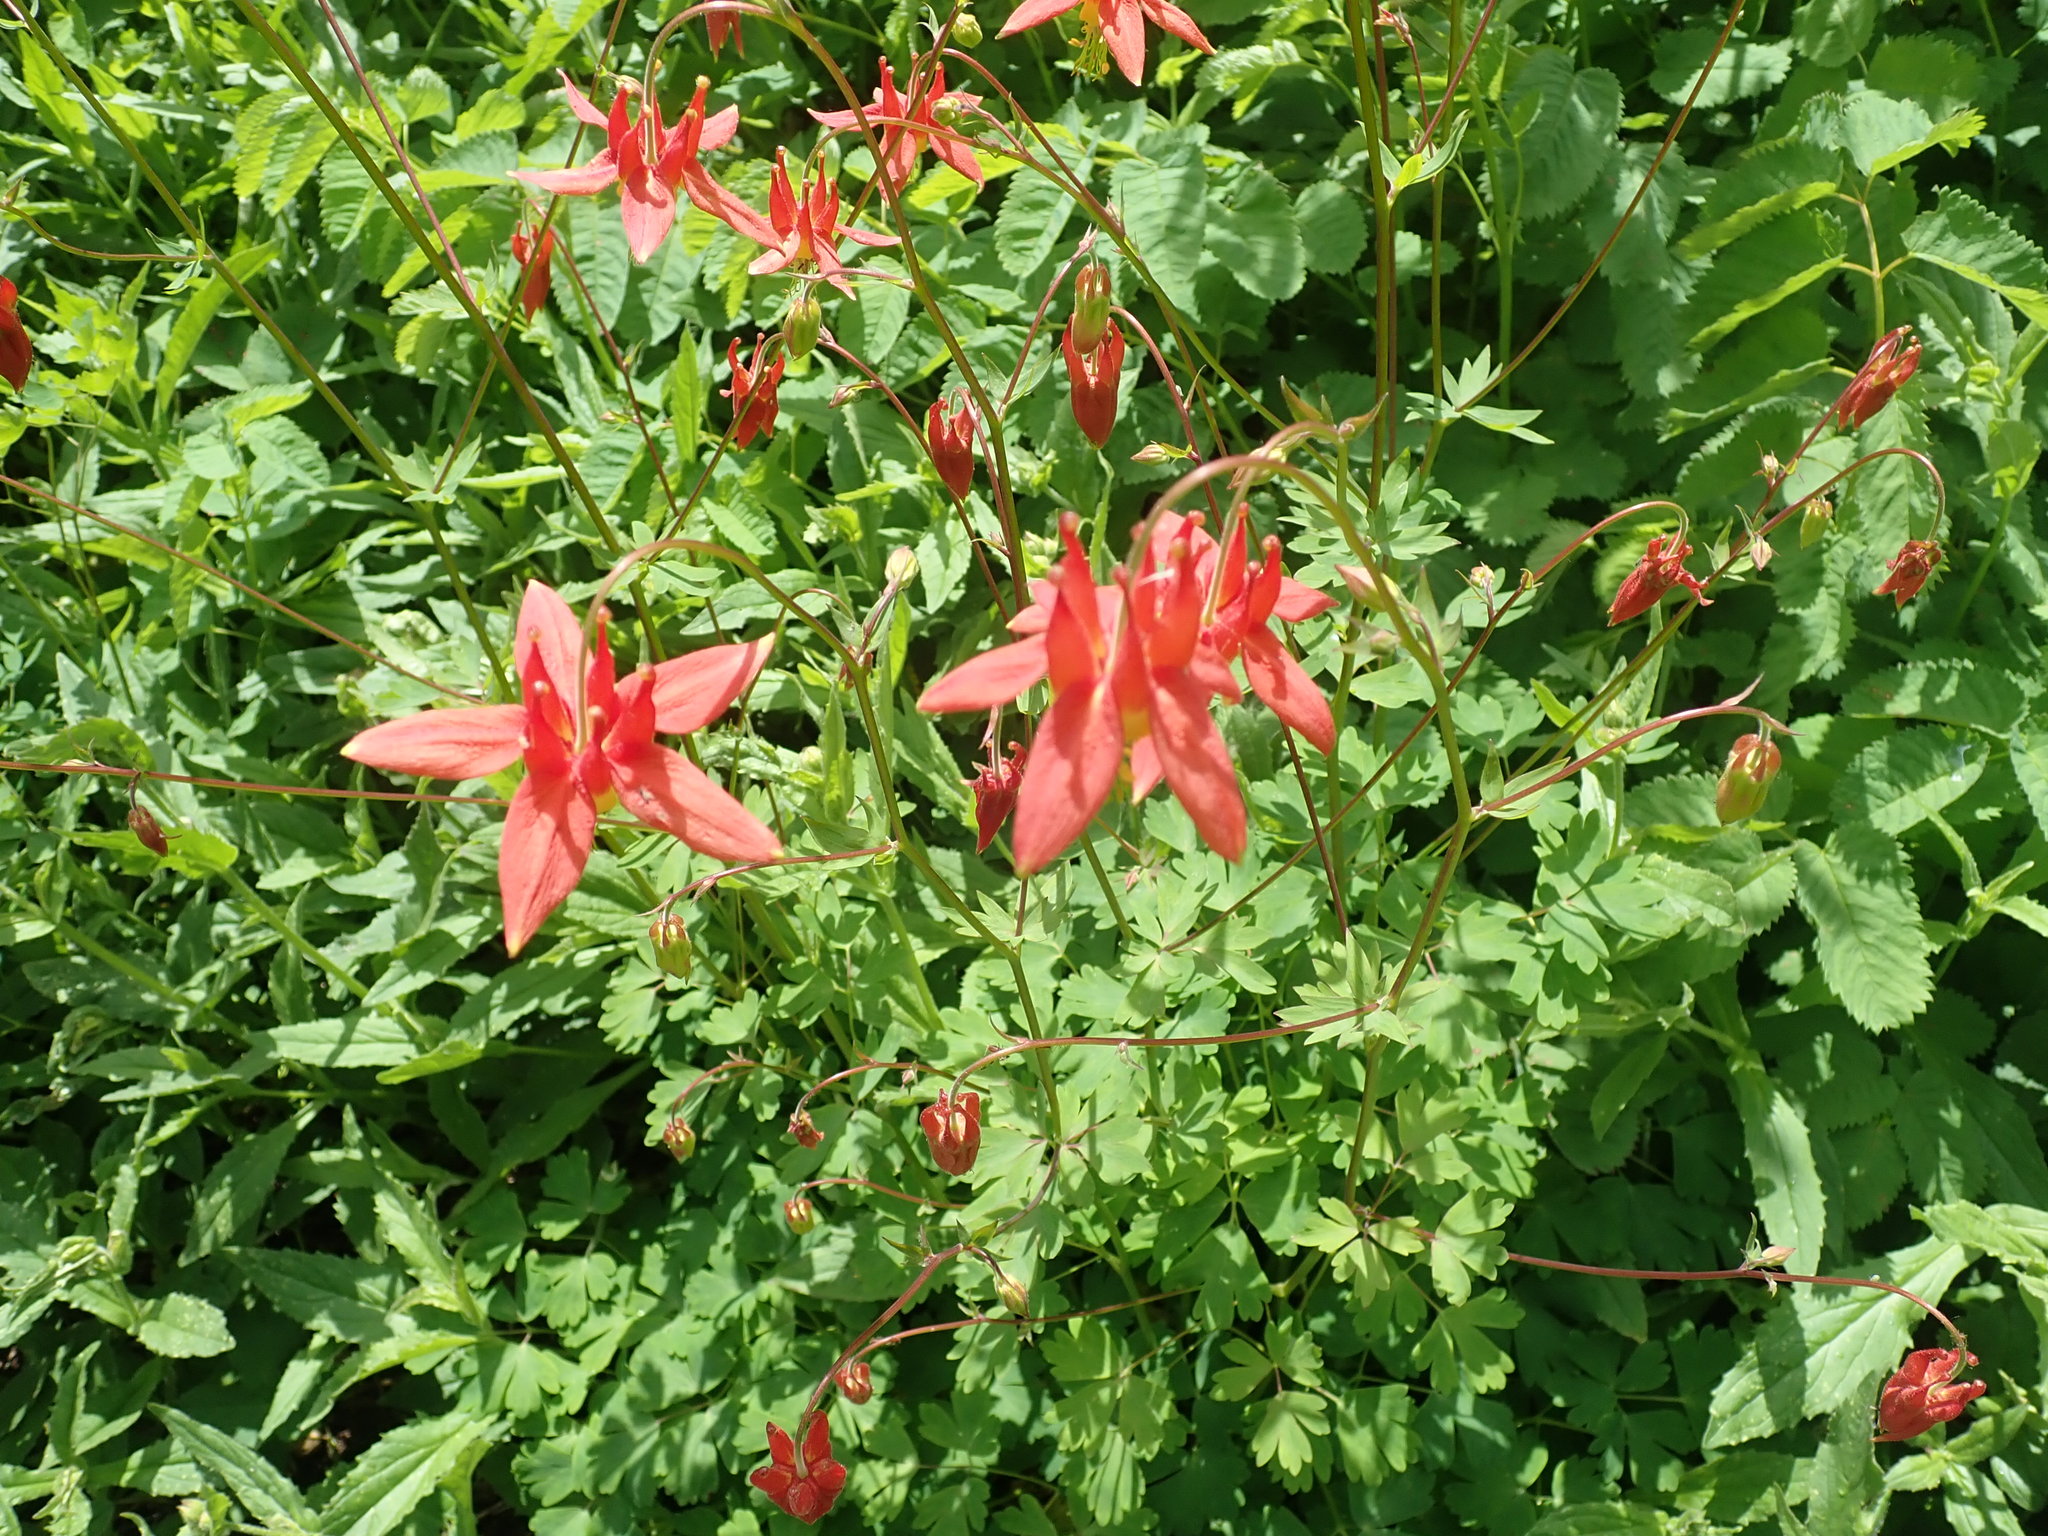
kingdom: Plantae
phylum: Tracheophyta
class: Magnoliopsida
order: Ranunculales
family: Ranunculaceae
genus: Aquilegia
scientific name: Aquilegia formosa
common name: Sitka columbine
